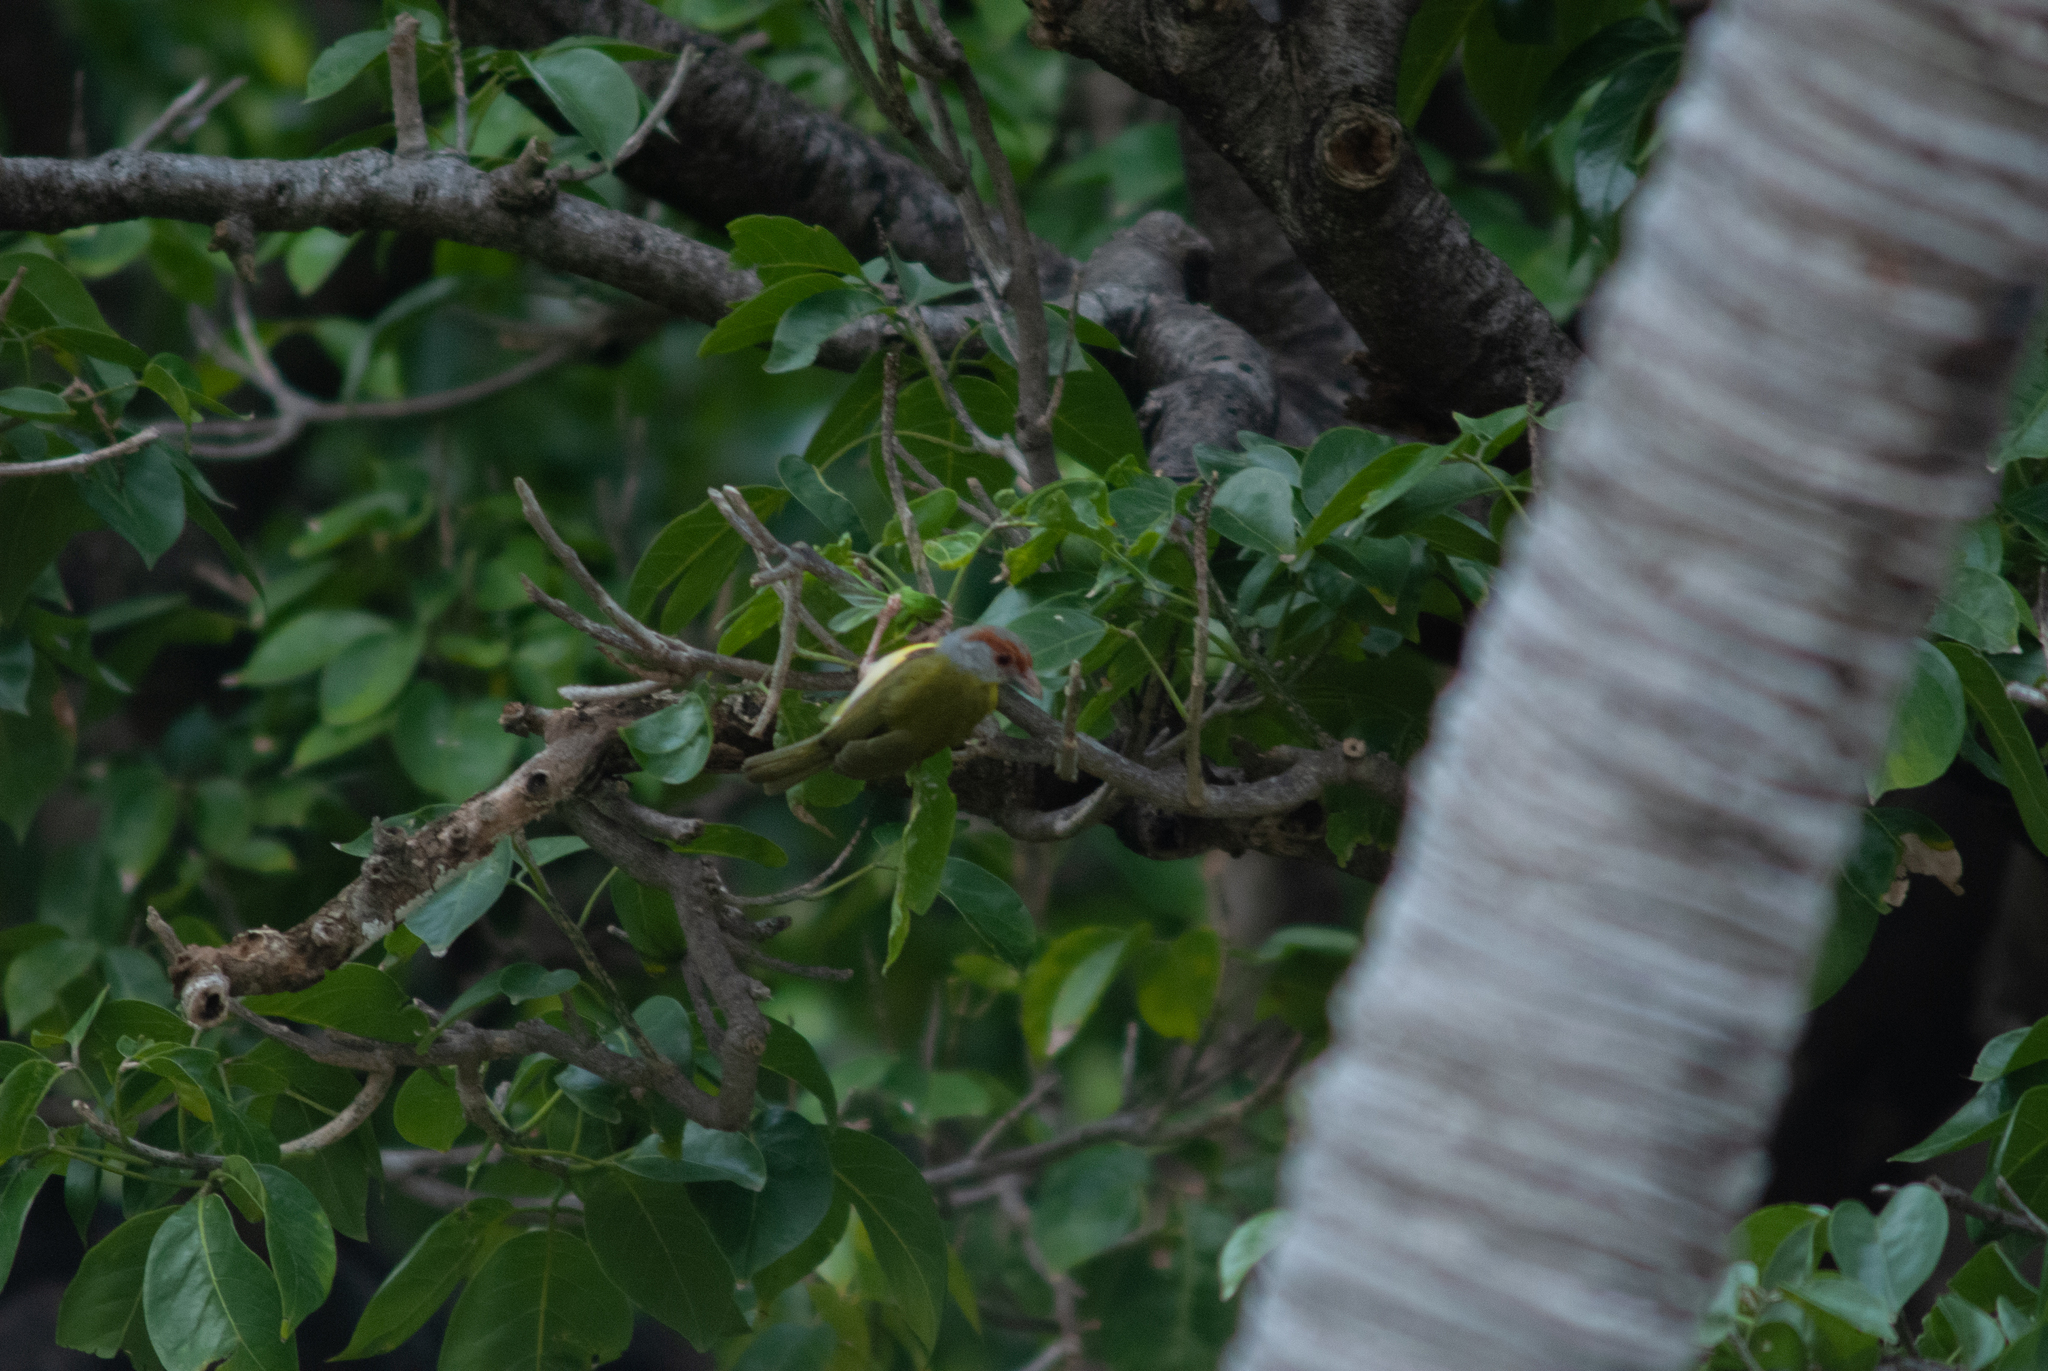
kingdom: Animalia
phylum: Chordata
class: Aves
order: Passeriformes
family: Vireonidae
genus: Cyclarhis
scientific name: Cyclarhis gujanensis
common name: Rufous-browed peppershrike
